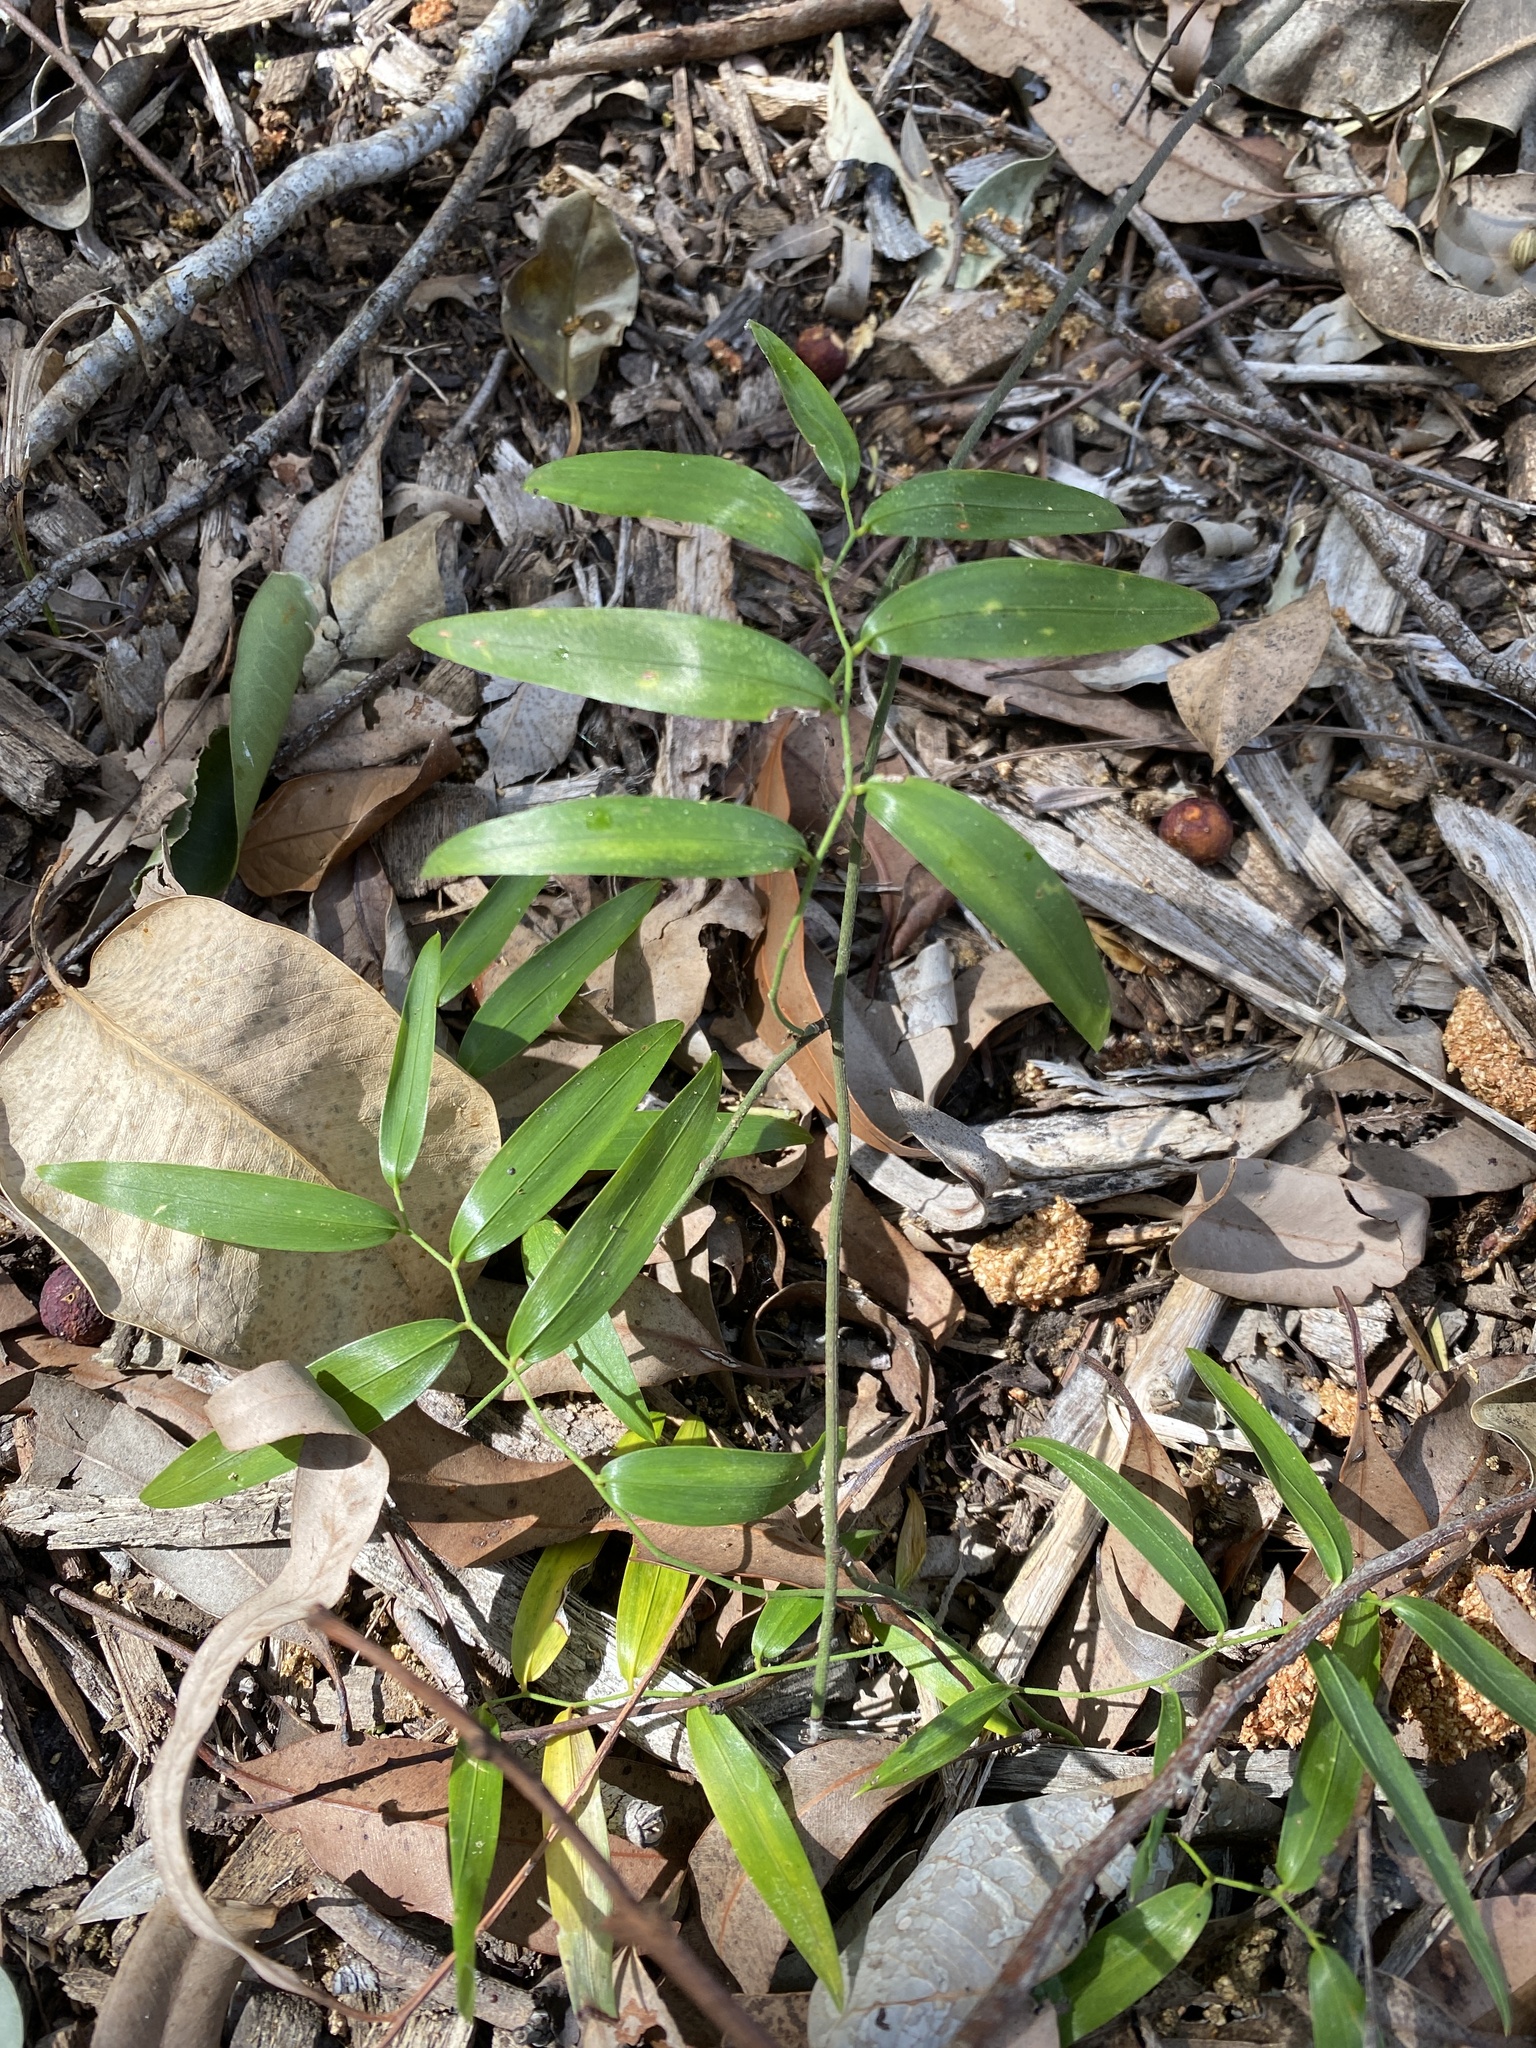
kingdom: Plantae
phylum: Tracheophyta
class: Liliopsida
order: Asparagales
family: Asphodelaceae
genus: Geitonoplesium
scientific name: Geitonoplesium cymosum
